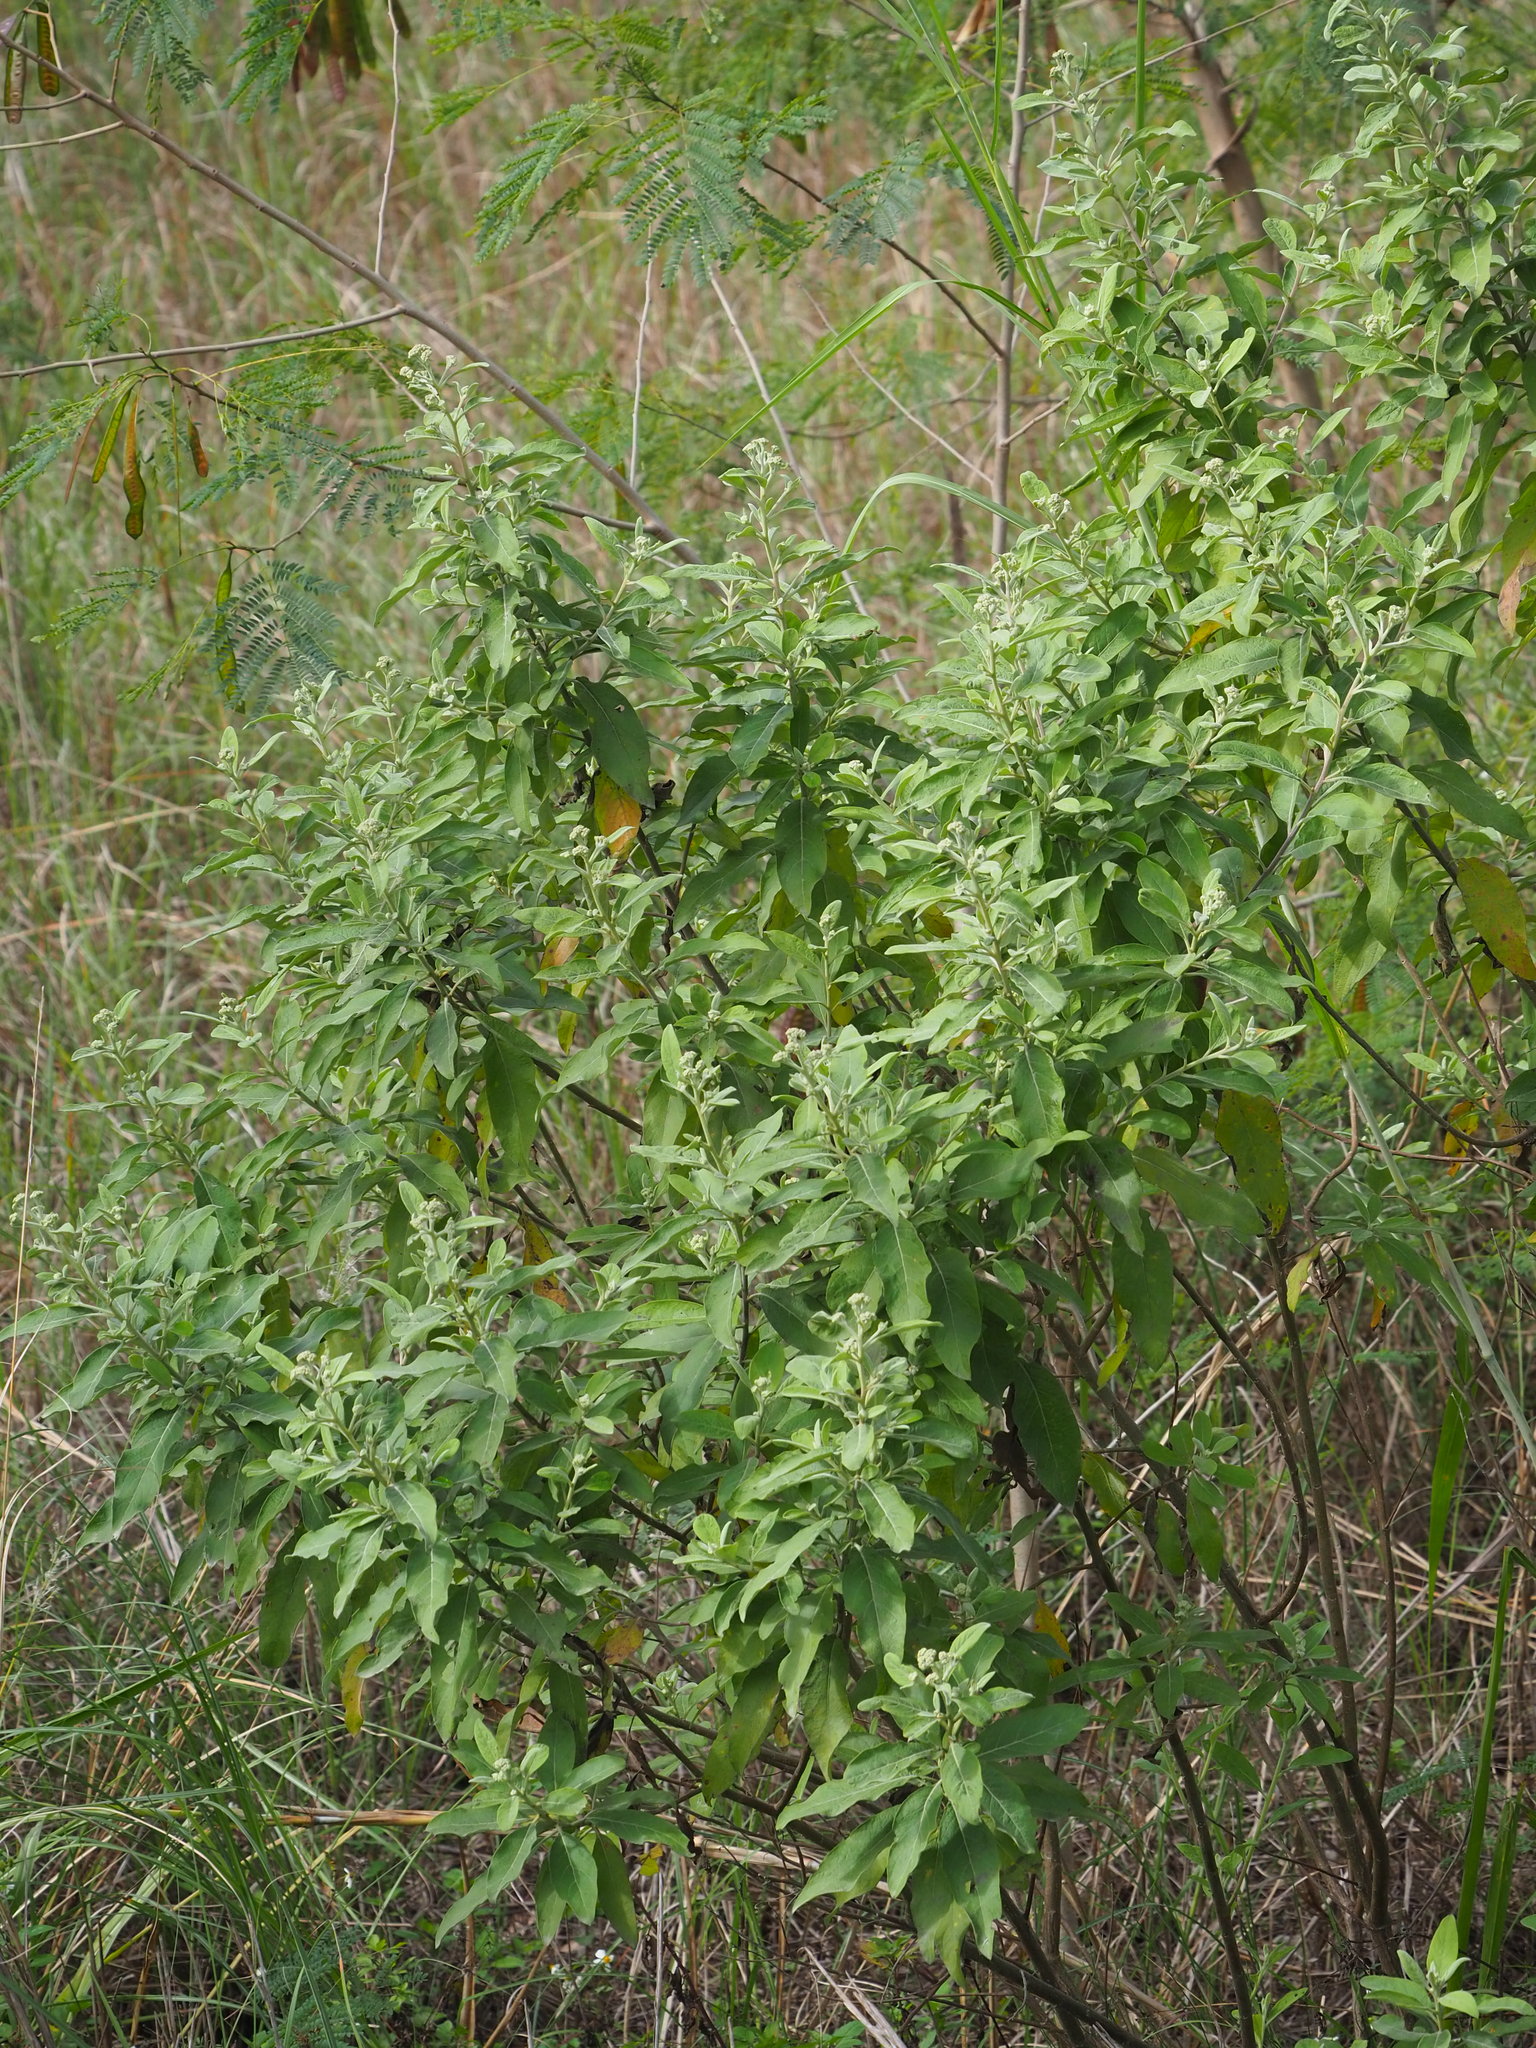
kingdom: Plantae
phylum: Tracheophyta
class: Magnoliopsida
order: Asterales
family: Asteraceae
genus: Pluchea
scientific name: Pluchea carolinensis
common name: Marsh fleabane
